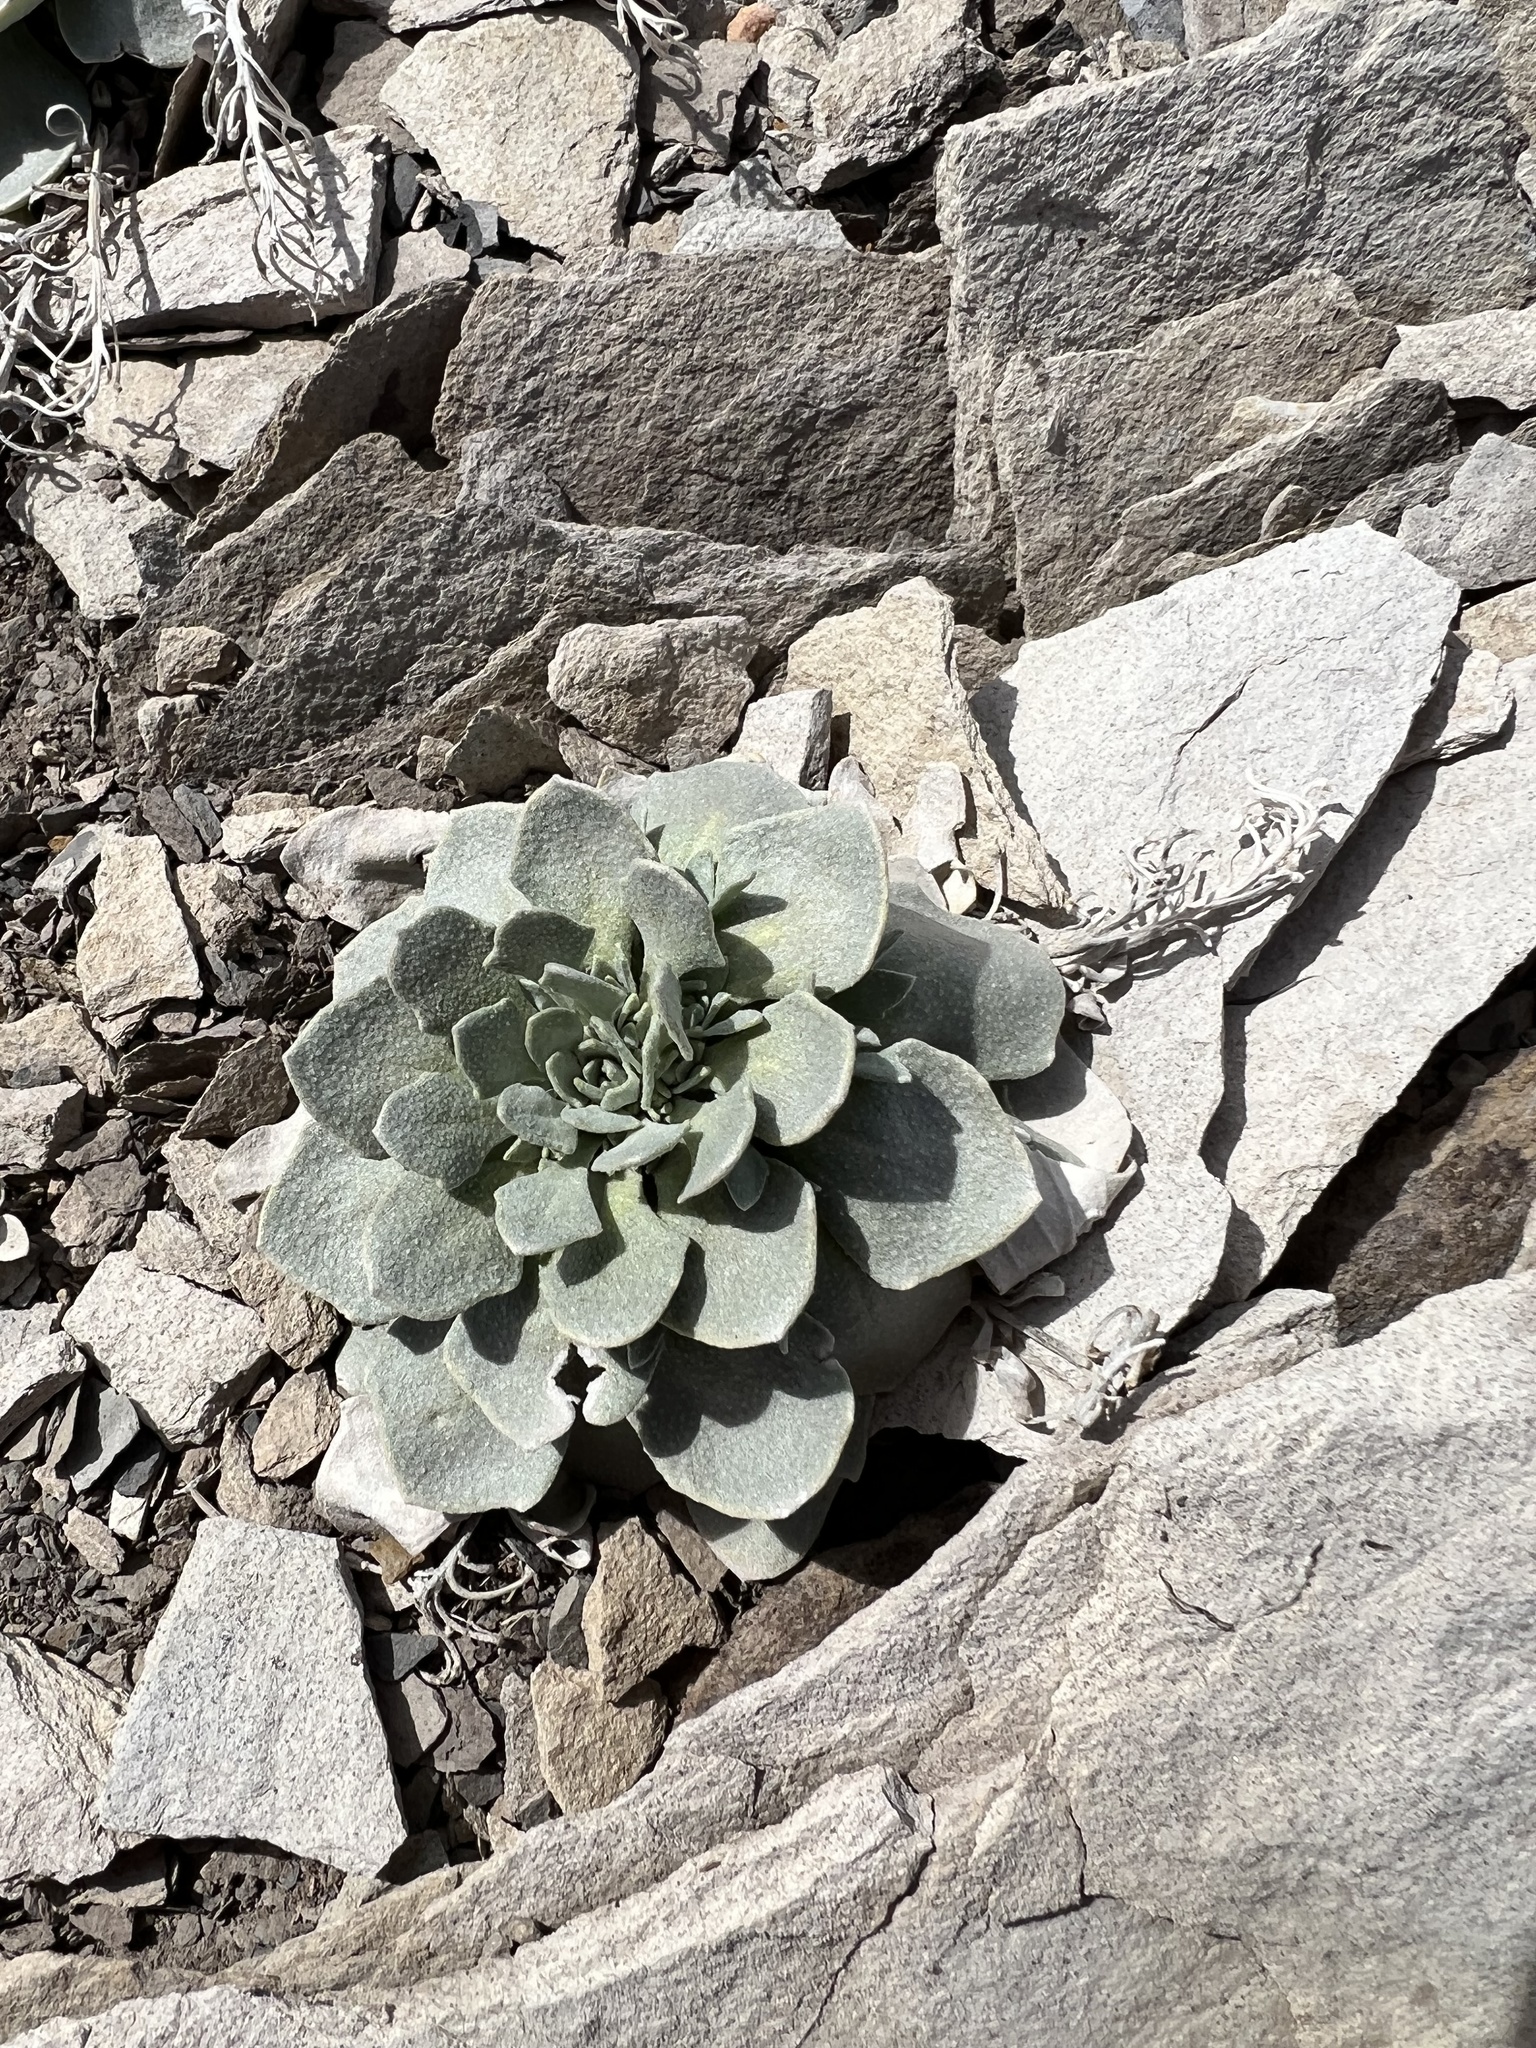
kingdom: Plantae
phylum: Tracheophyta
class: Magnoliopsida
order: Brassicales
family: Brassicaceae
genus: Physaria
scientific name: Physaria bellii
